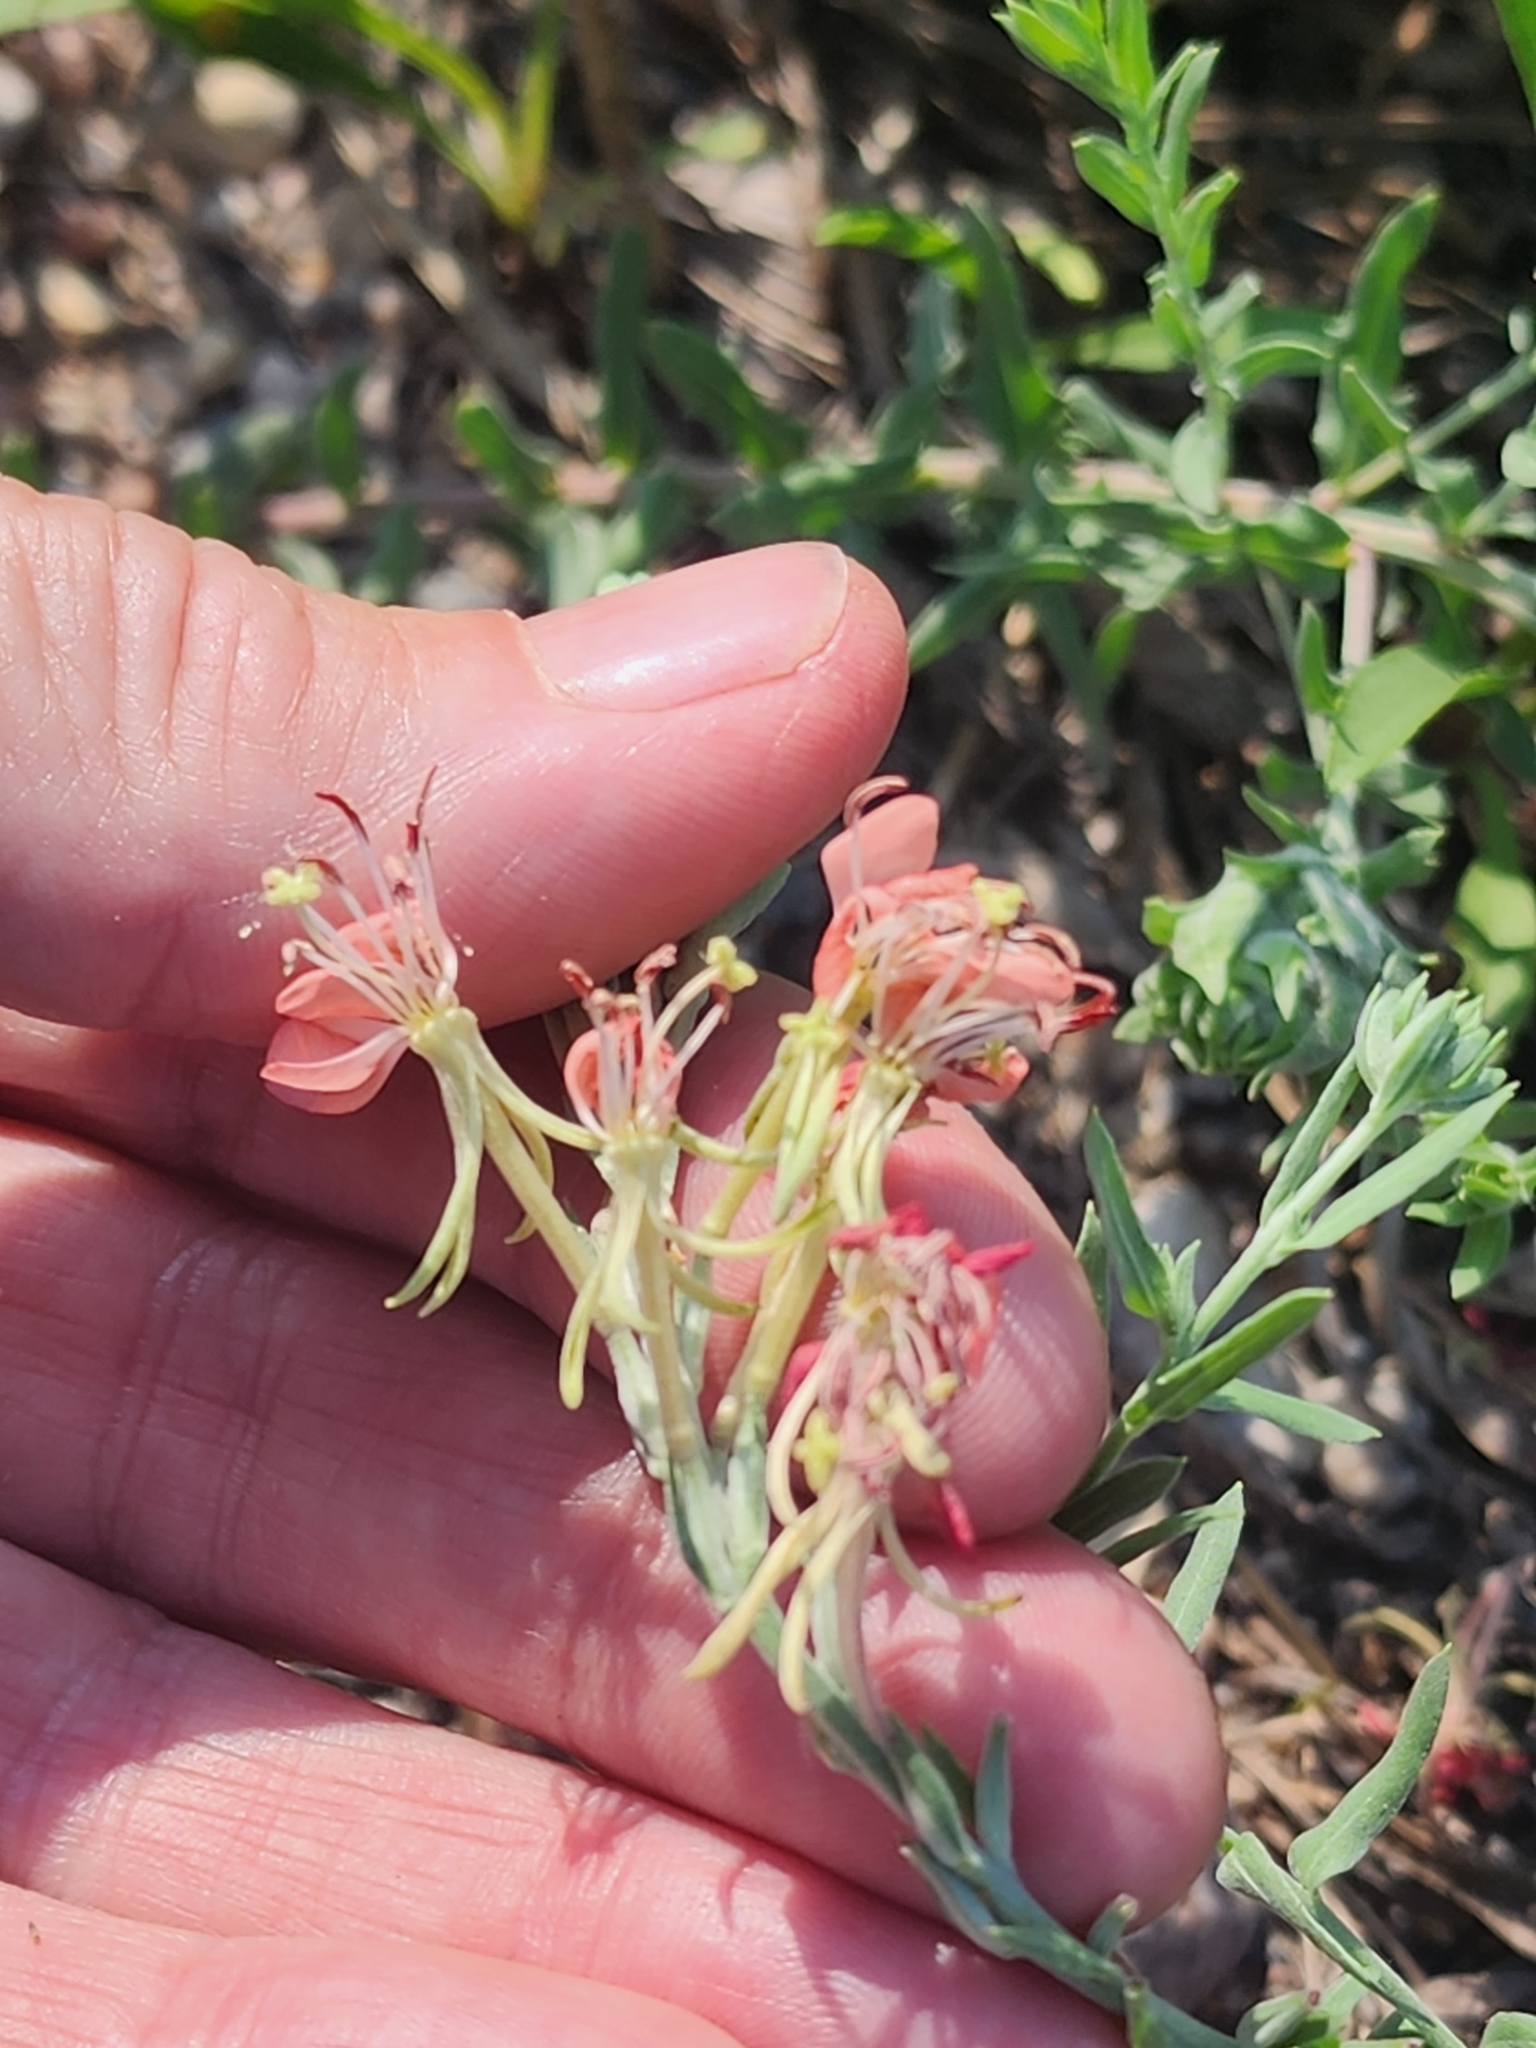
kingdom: Plantae
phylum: Tracheophyta
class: Magnoliopsida
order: Myrtales
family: Onagraceae
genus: Oenothera
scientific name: Oenothera suffrutescens
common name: Scarlet beeblossom
